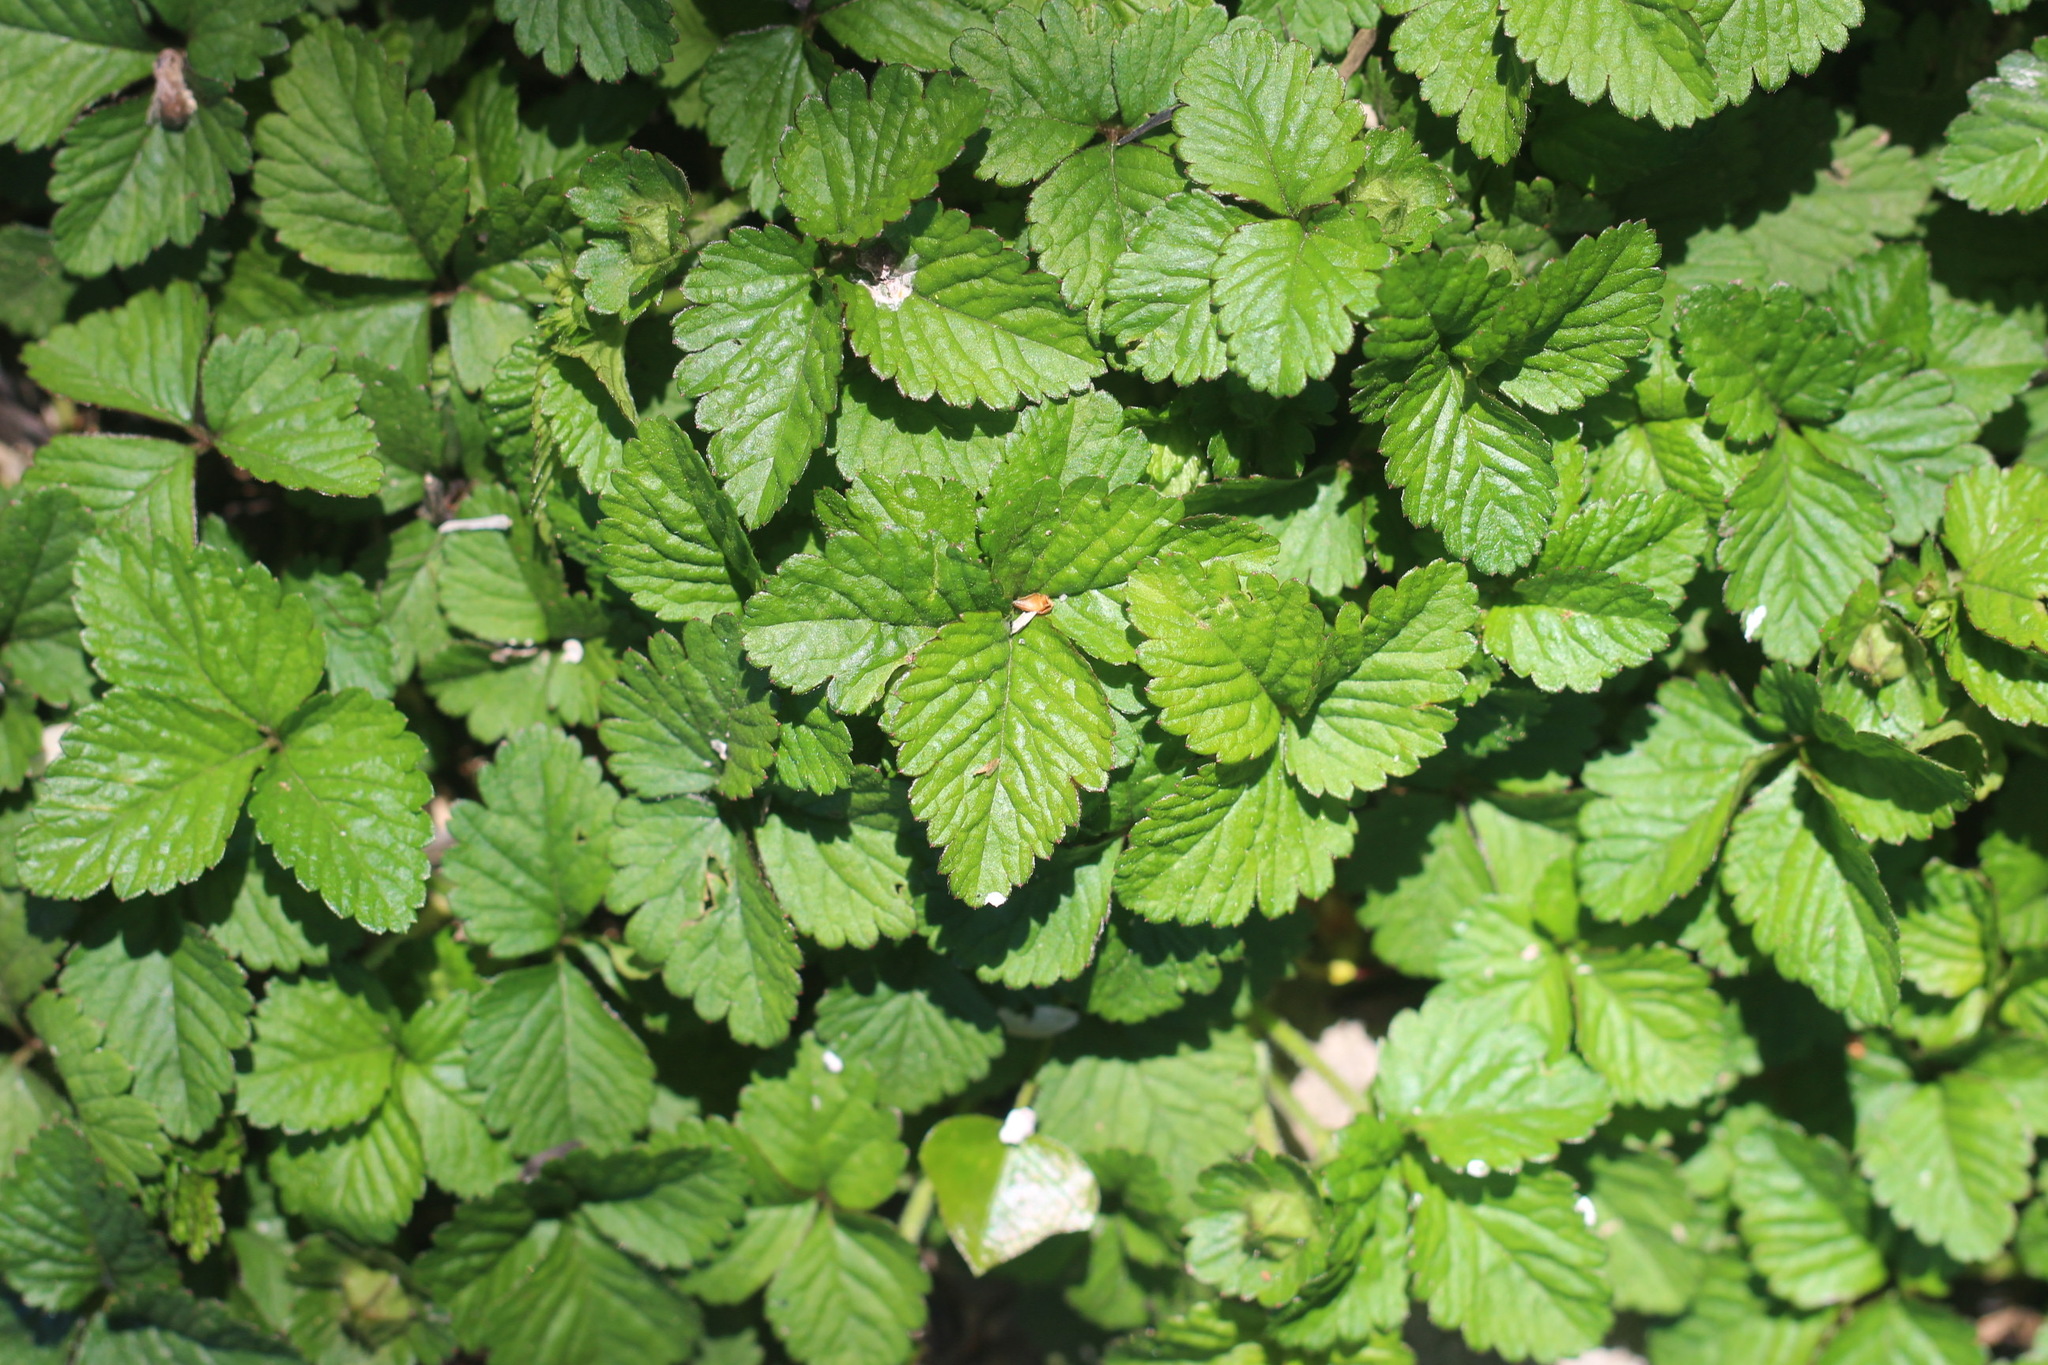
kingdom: Plantae
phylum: Tracheophyta
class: Magnoliopsida
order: Rosales
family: Rosaceae
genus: Potentilla
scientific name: Potentilla indica
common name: Yellow-flowered strawberry
